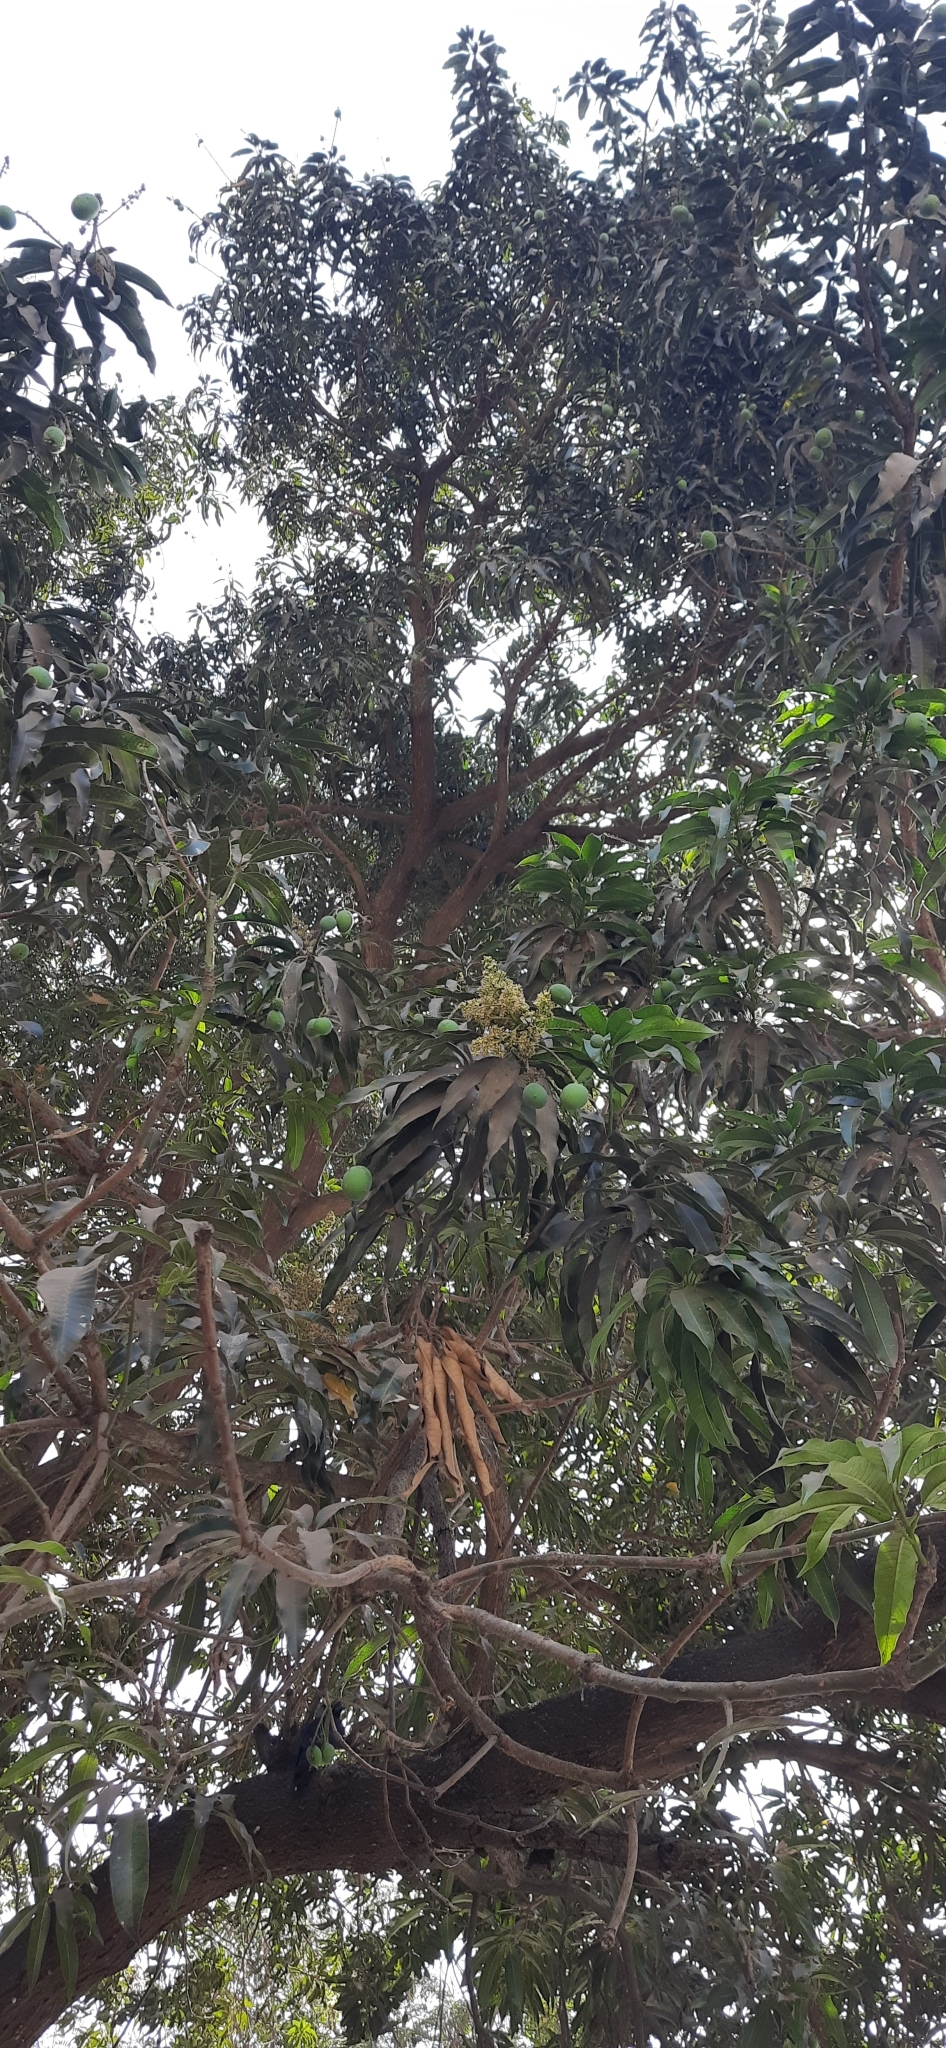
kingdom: Plantae
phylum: Tracheophyta
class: Magnoliopsida
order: Sapindales
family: Anacardiaceae
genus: Mangifera
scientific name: Mangifera indica
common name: Mango
